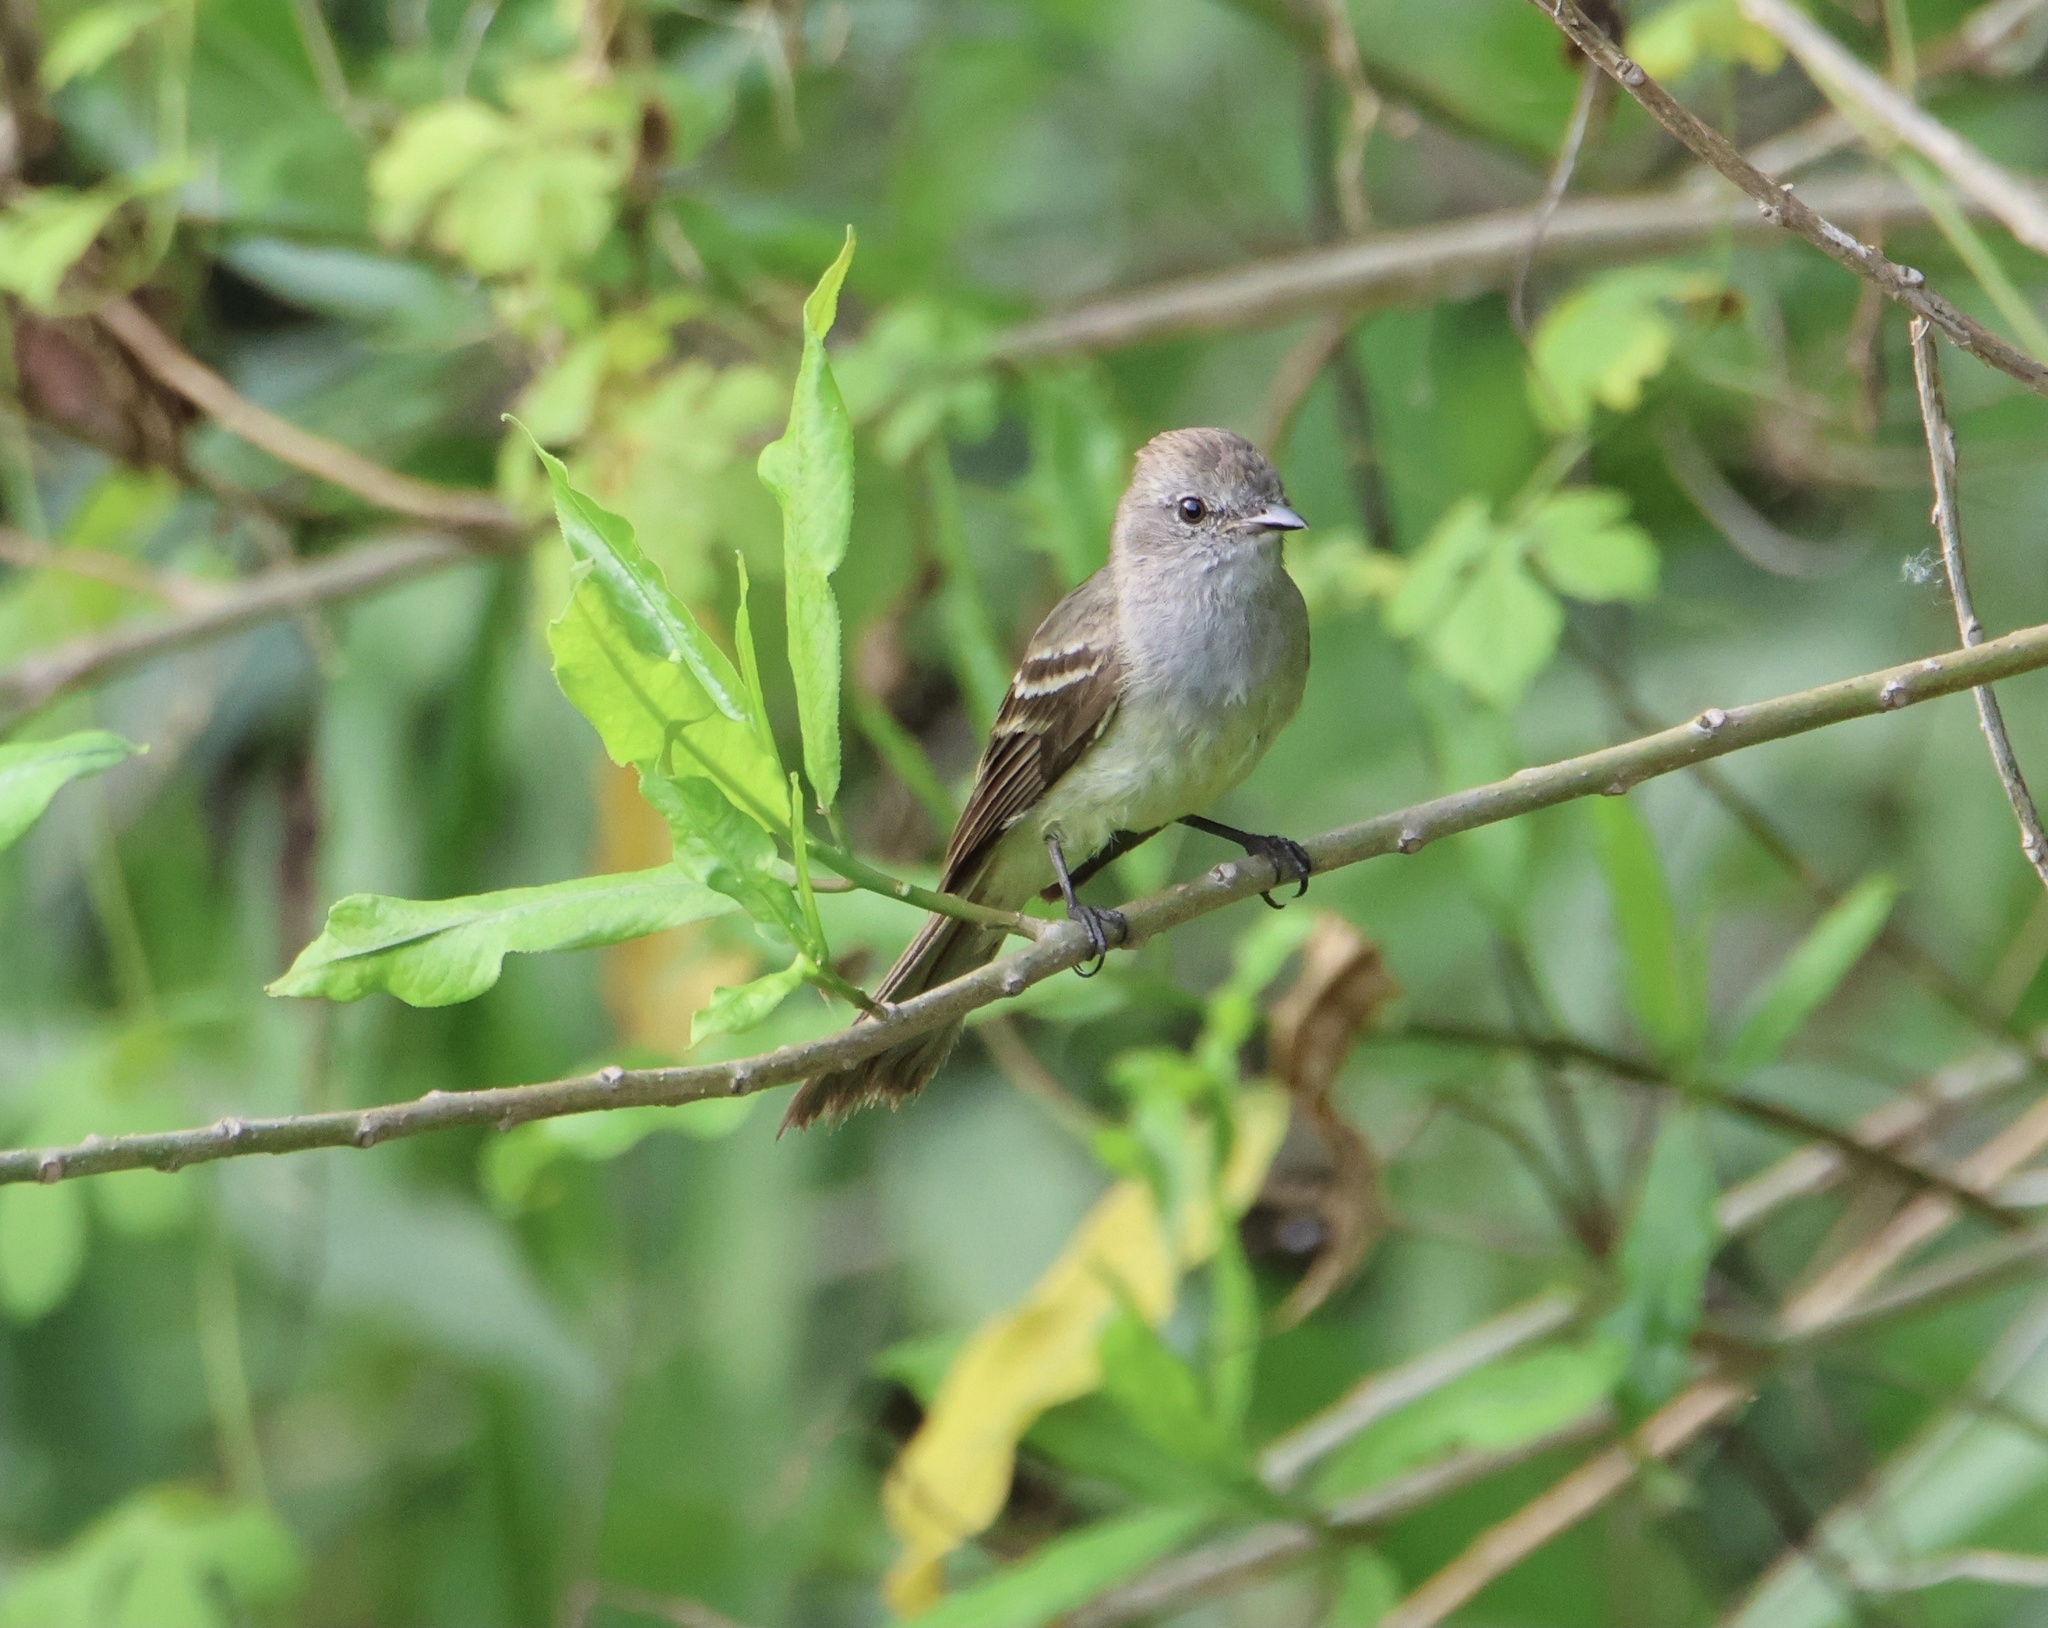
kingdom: Animalia
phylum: Chordata
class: Aves
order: Passeriformes
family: Tyrannidae
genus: Sublegatus
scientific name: Sublegatus arenarum
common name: Northern scrub-flycatcher
